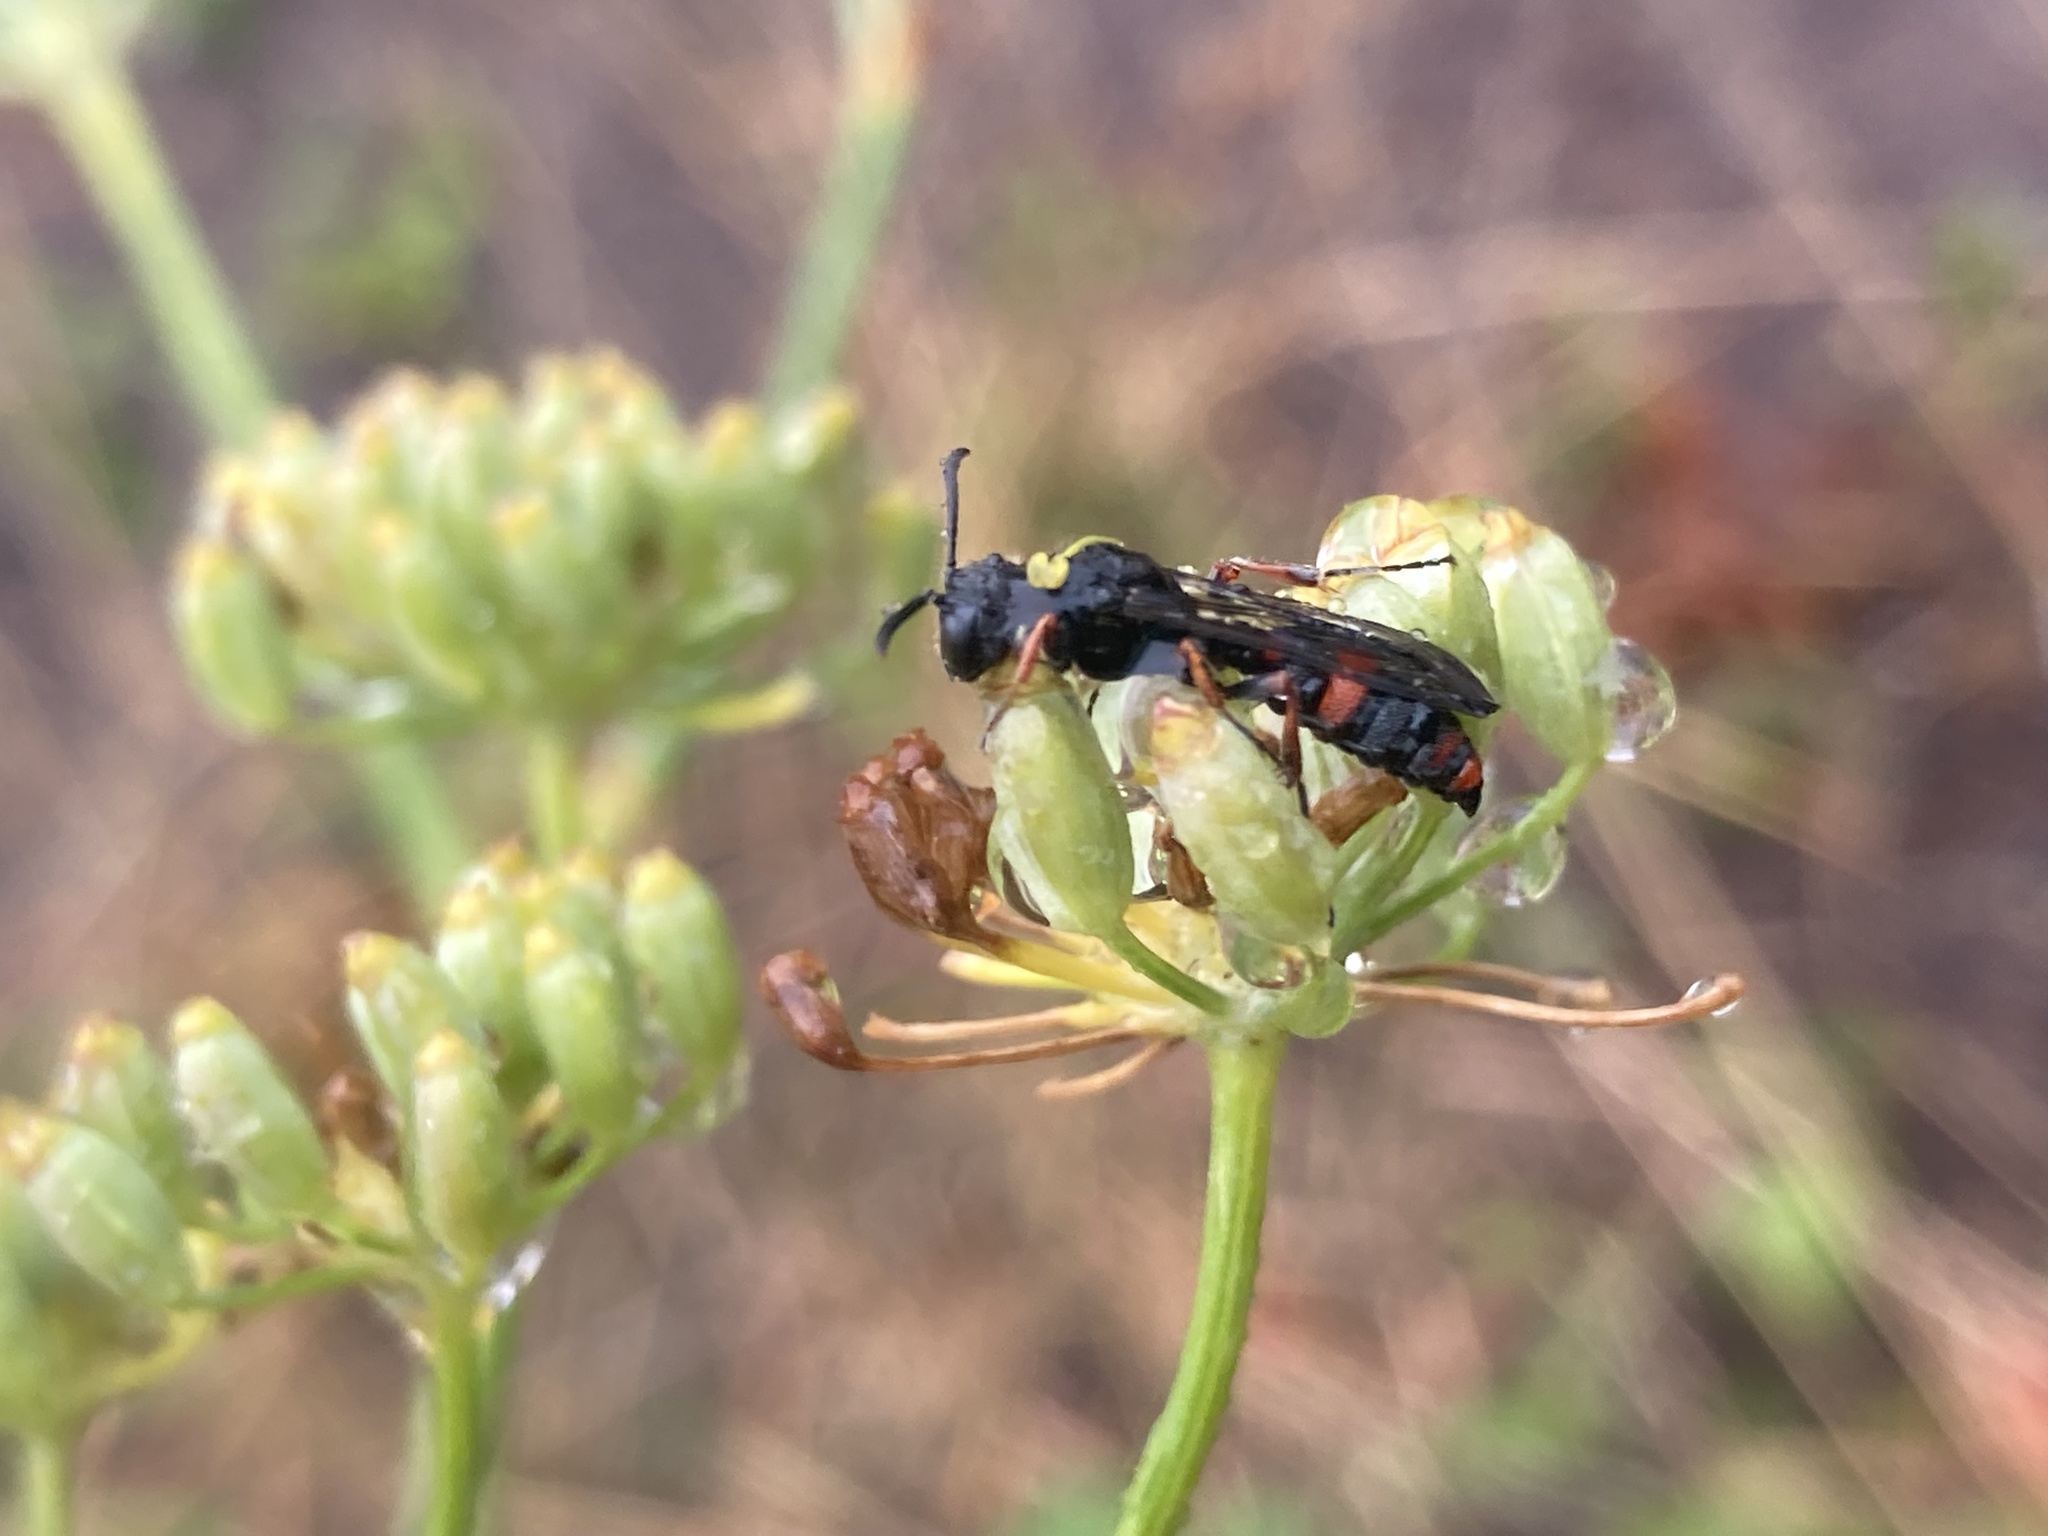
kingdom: Animalia
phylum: Arthropoda
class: Insecta
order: Hymenoptera
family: Crabronidae
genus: Cerceris
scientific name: Cerceris concinna
